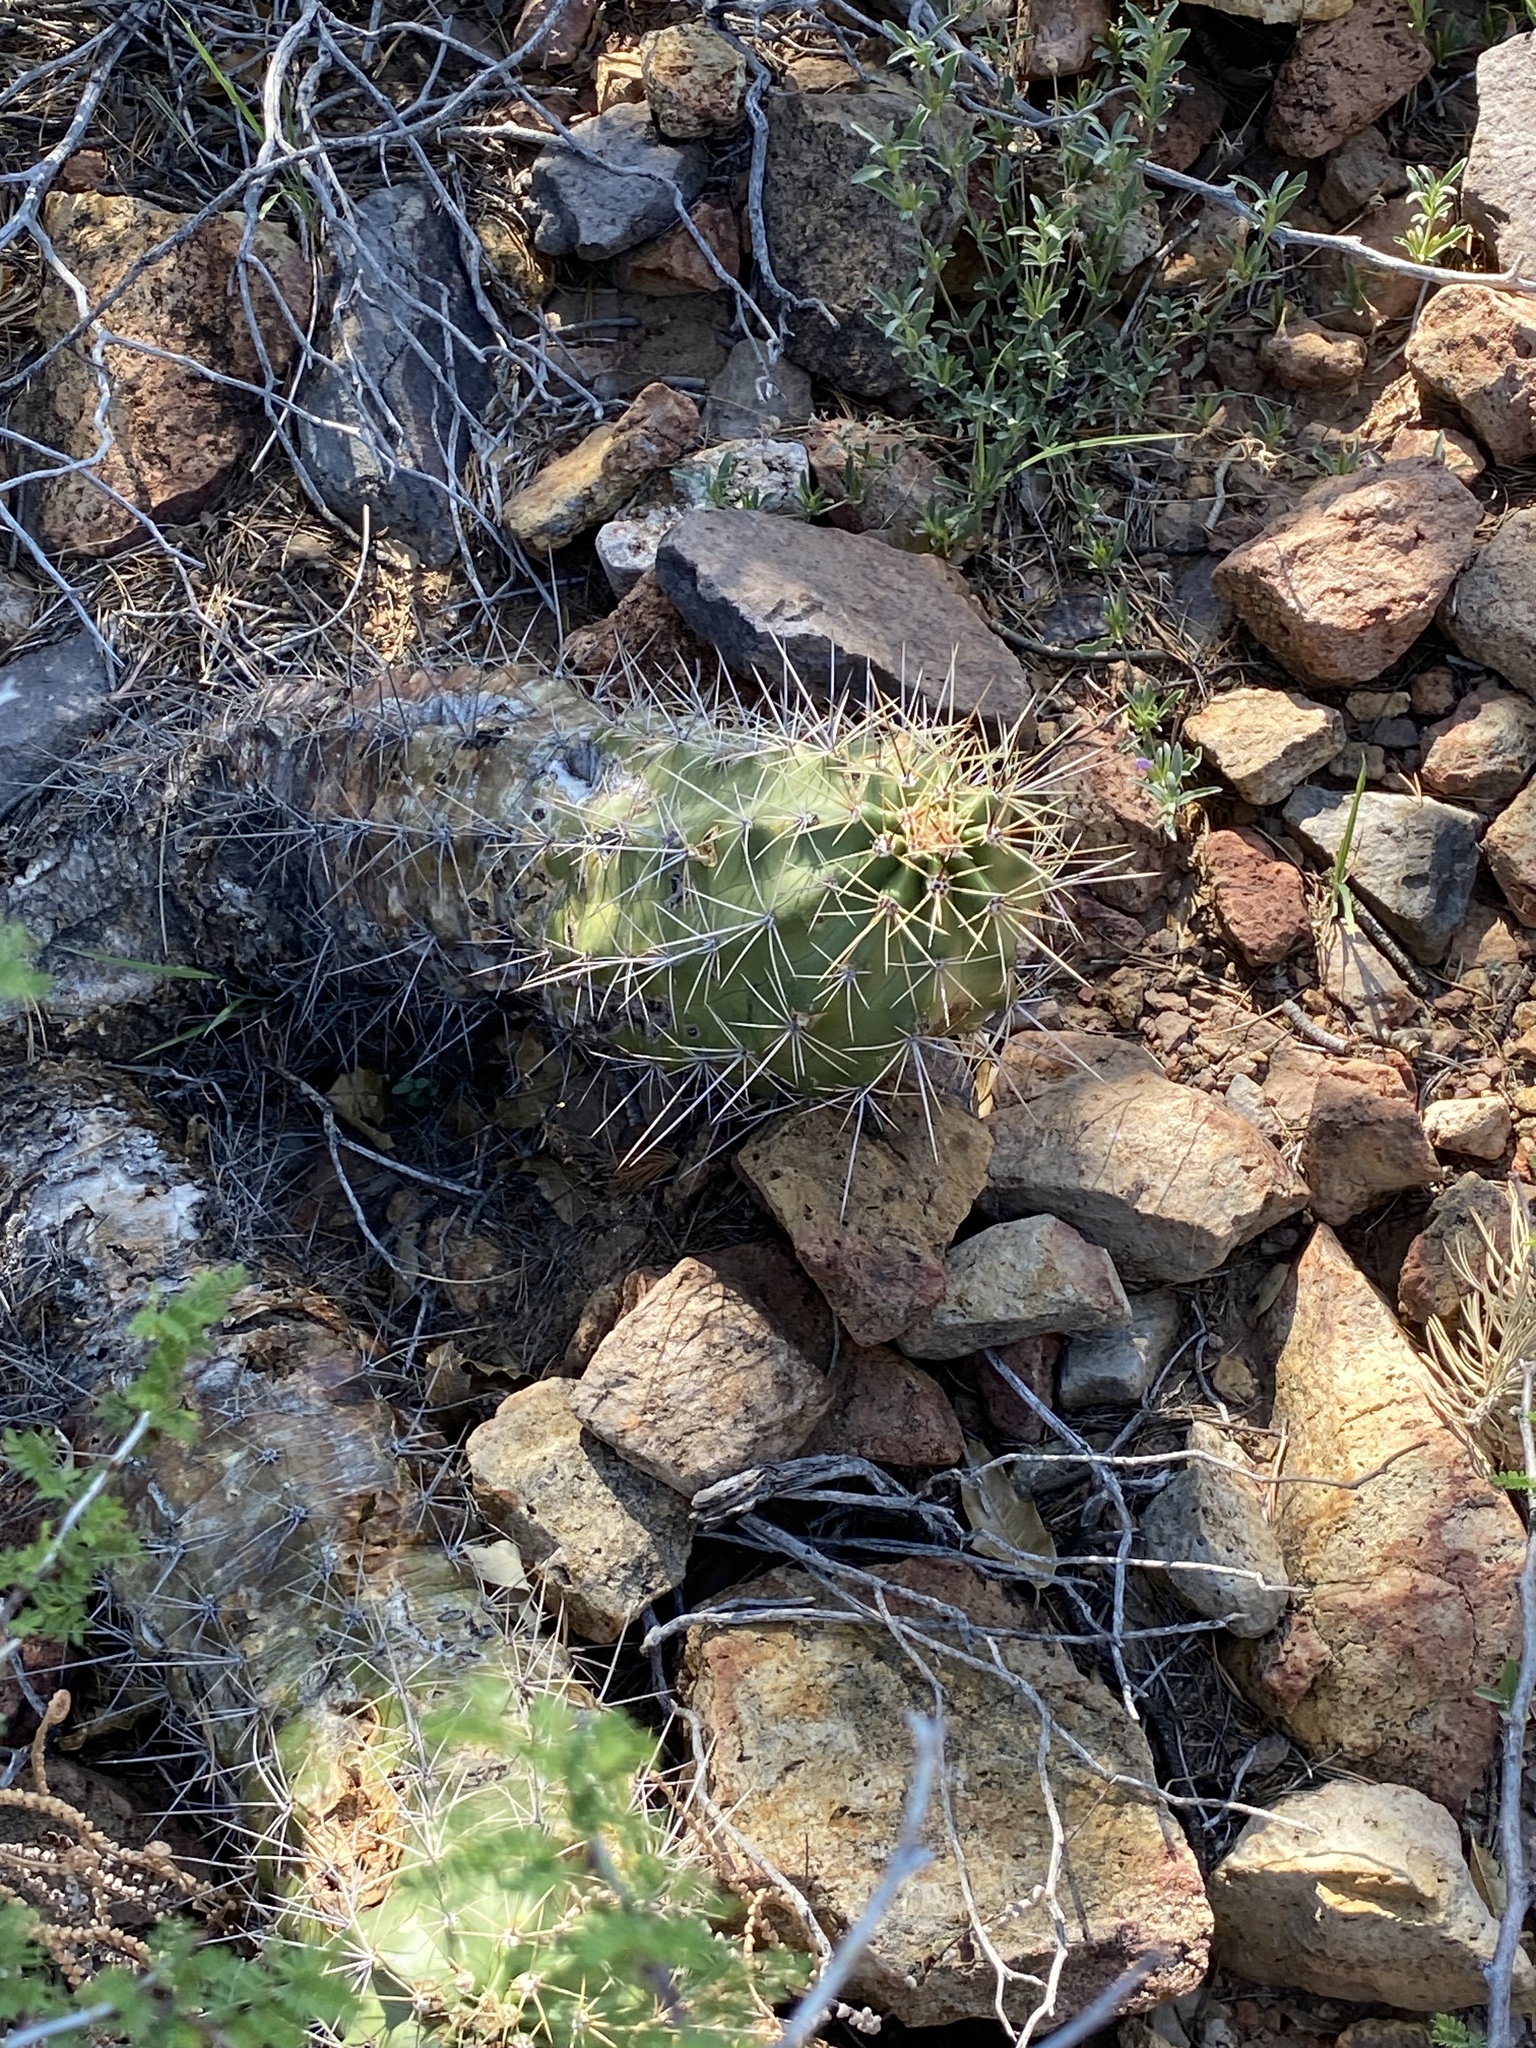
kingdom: Plantae
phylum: Tracheophyta
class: Magnoliopsida
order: Caryophyllales
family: Cactaceae
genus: Echinocereus
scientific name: Echinocereus coccineus
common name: Scarlet hedgehog cactus
